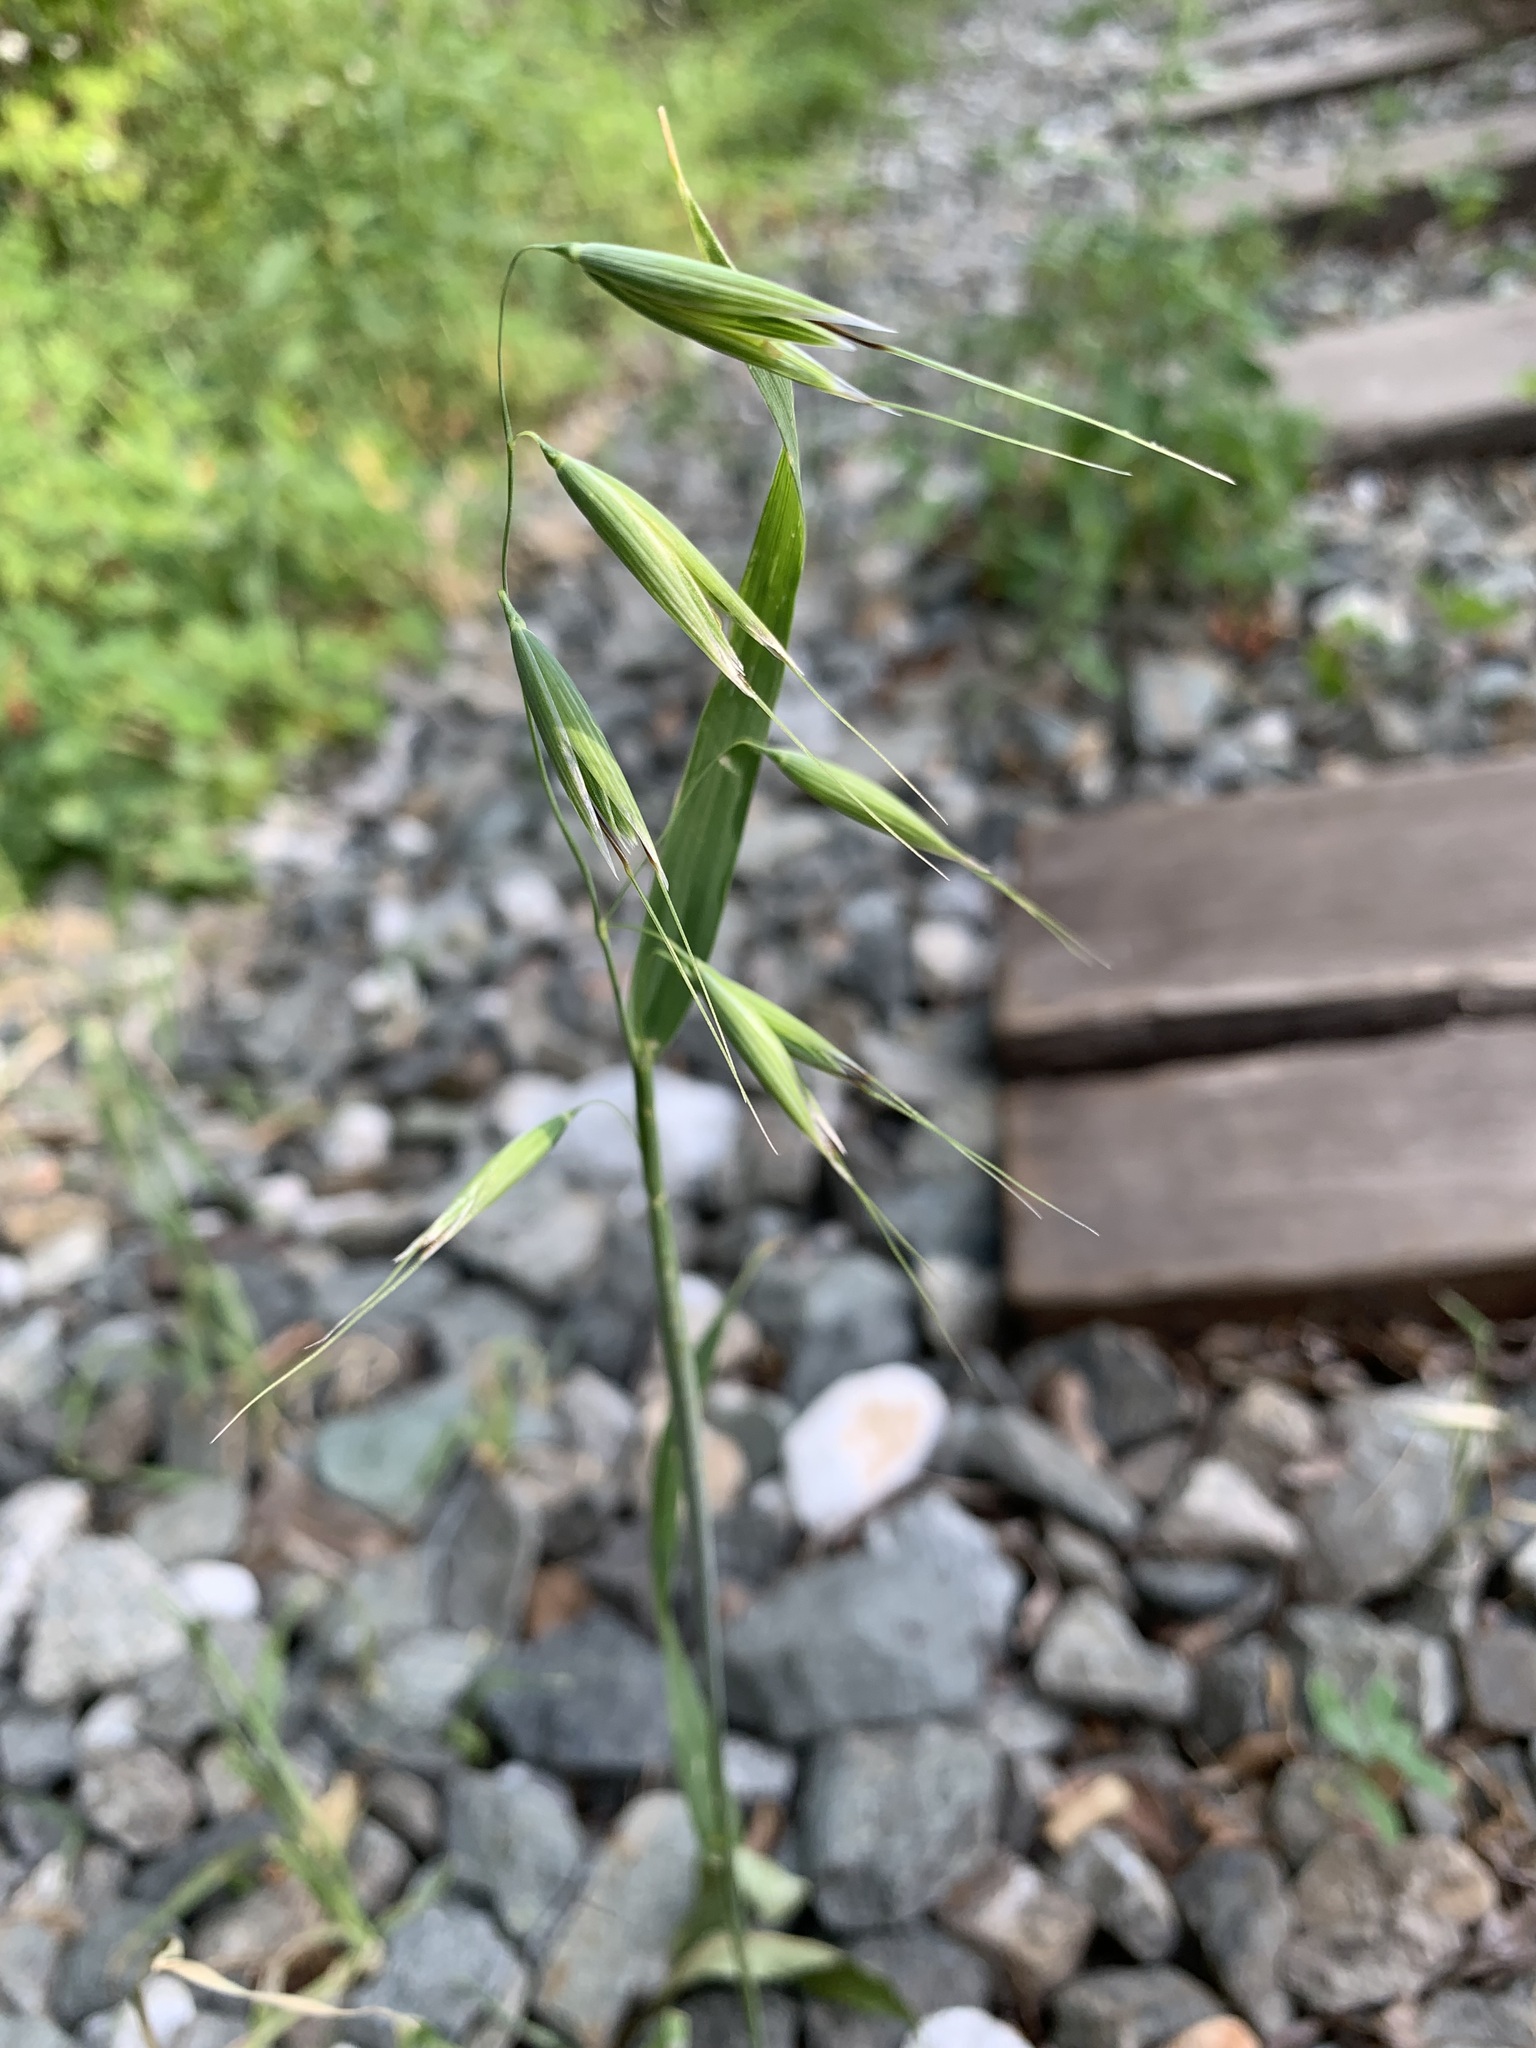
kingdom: Plantae
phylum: Tracheophyta
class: Liliopsida
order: Poales
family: Poaceae
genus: Avena
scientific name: Avena fatua
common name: Wild oat
